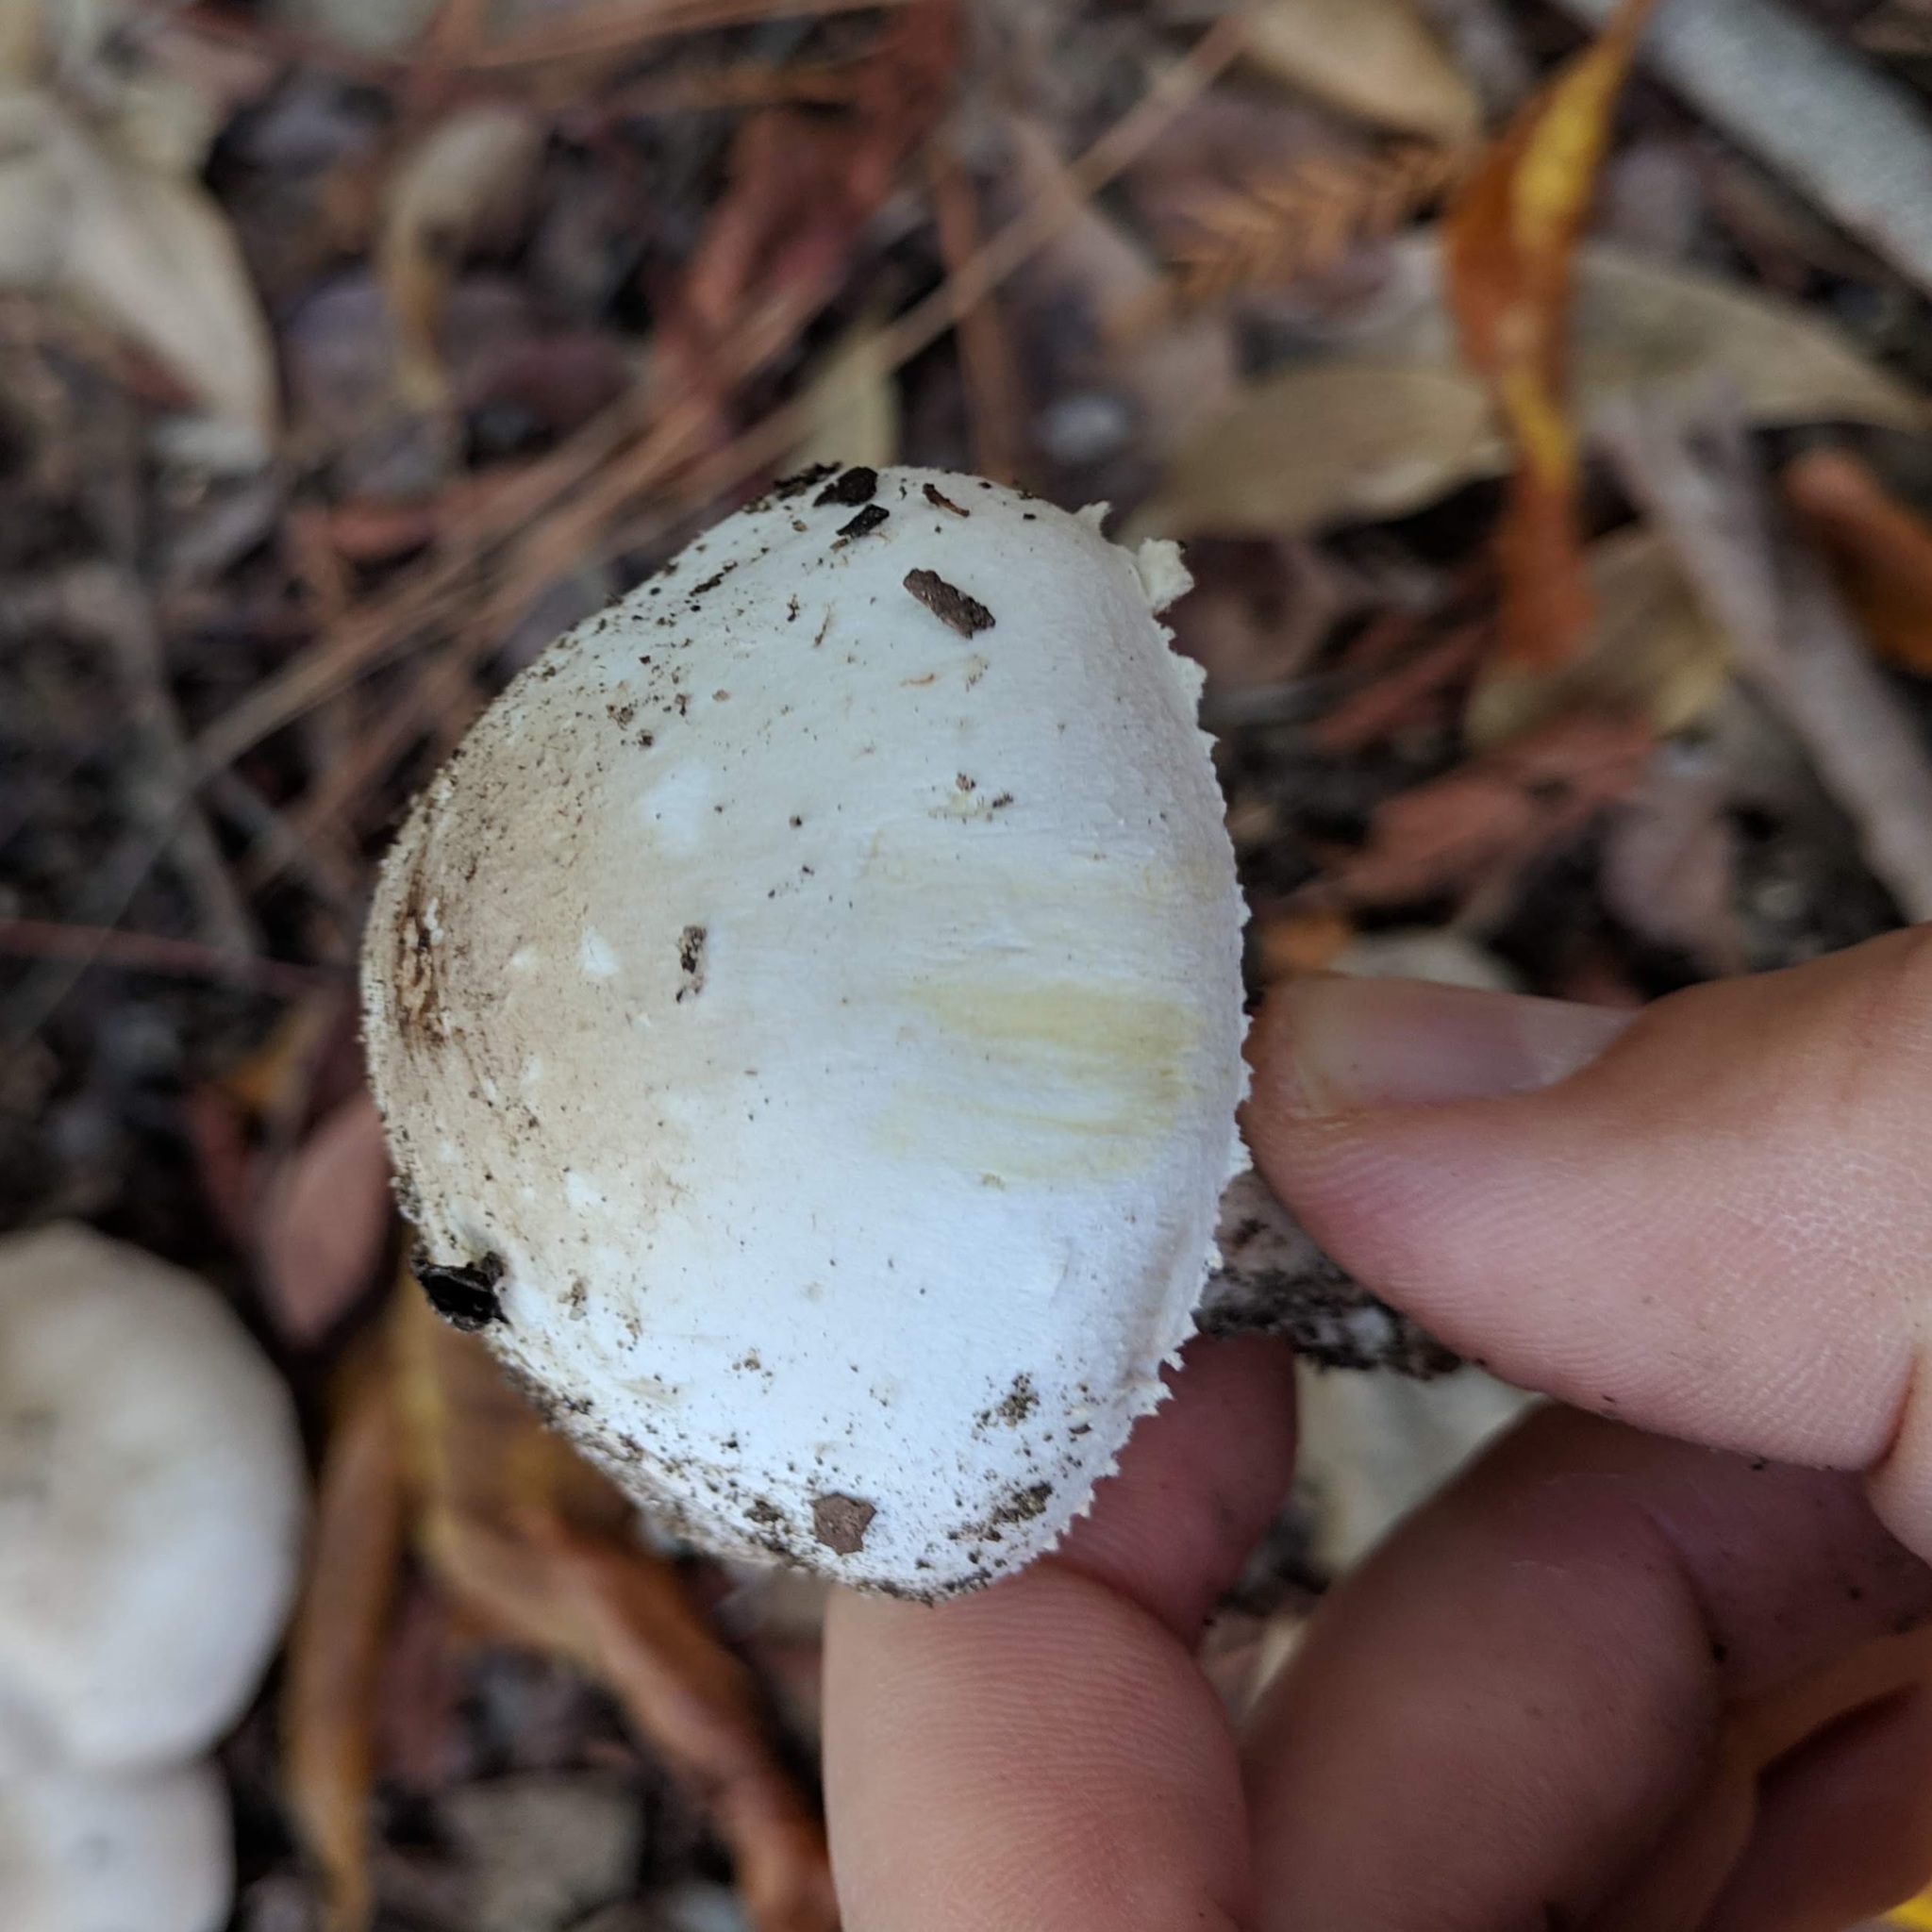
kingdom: Fungi
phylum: Basidiomycota
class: Agaricomycetes
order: Agaricales
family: Agaricaceae
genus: Agaricus
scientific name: Agaricus xanthodermus
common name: Yellow stainer
